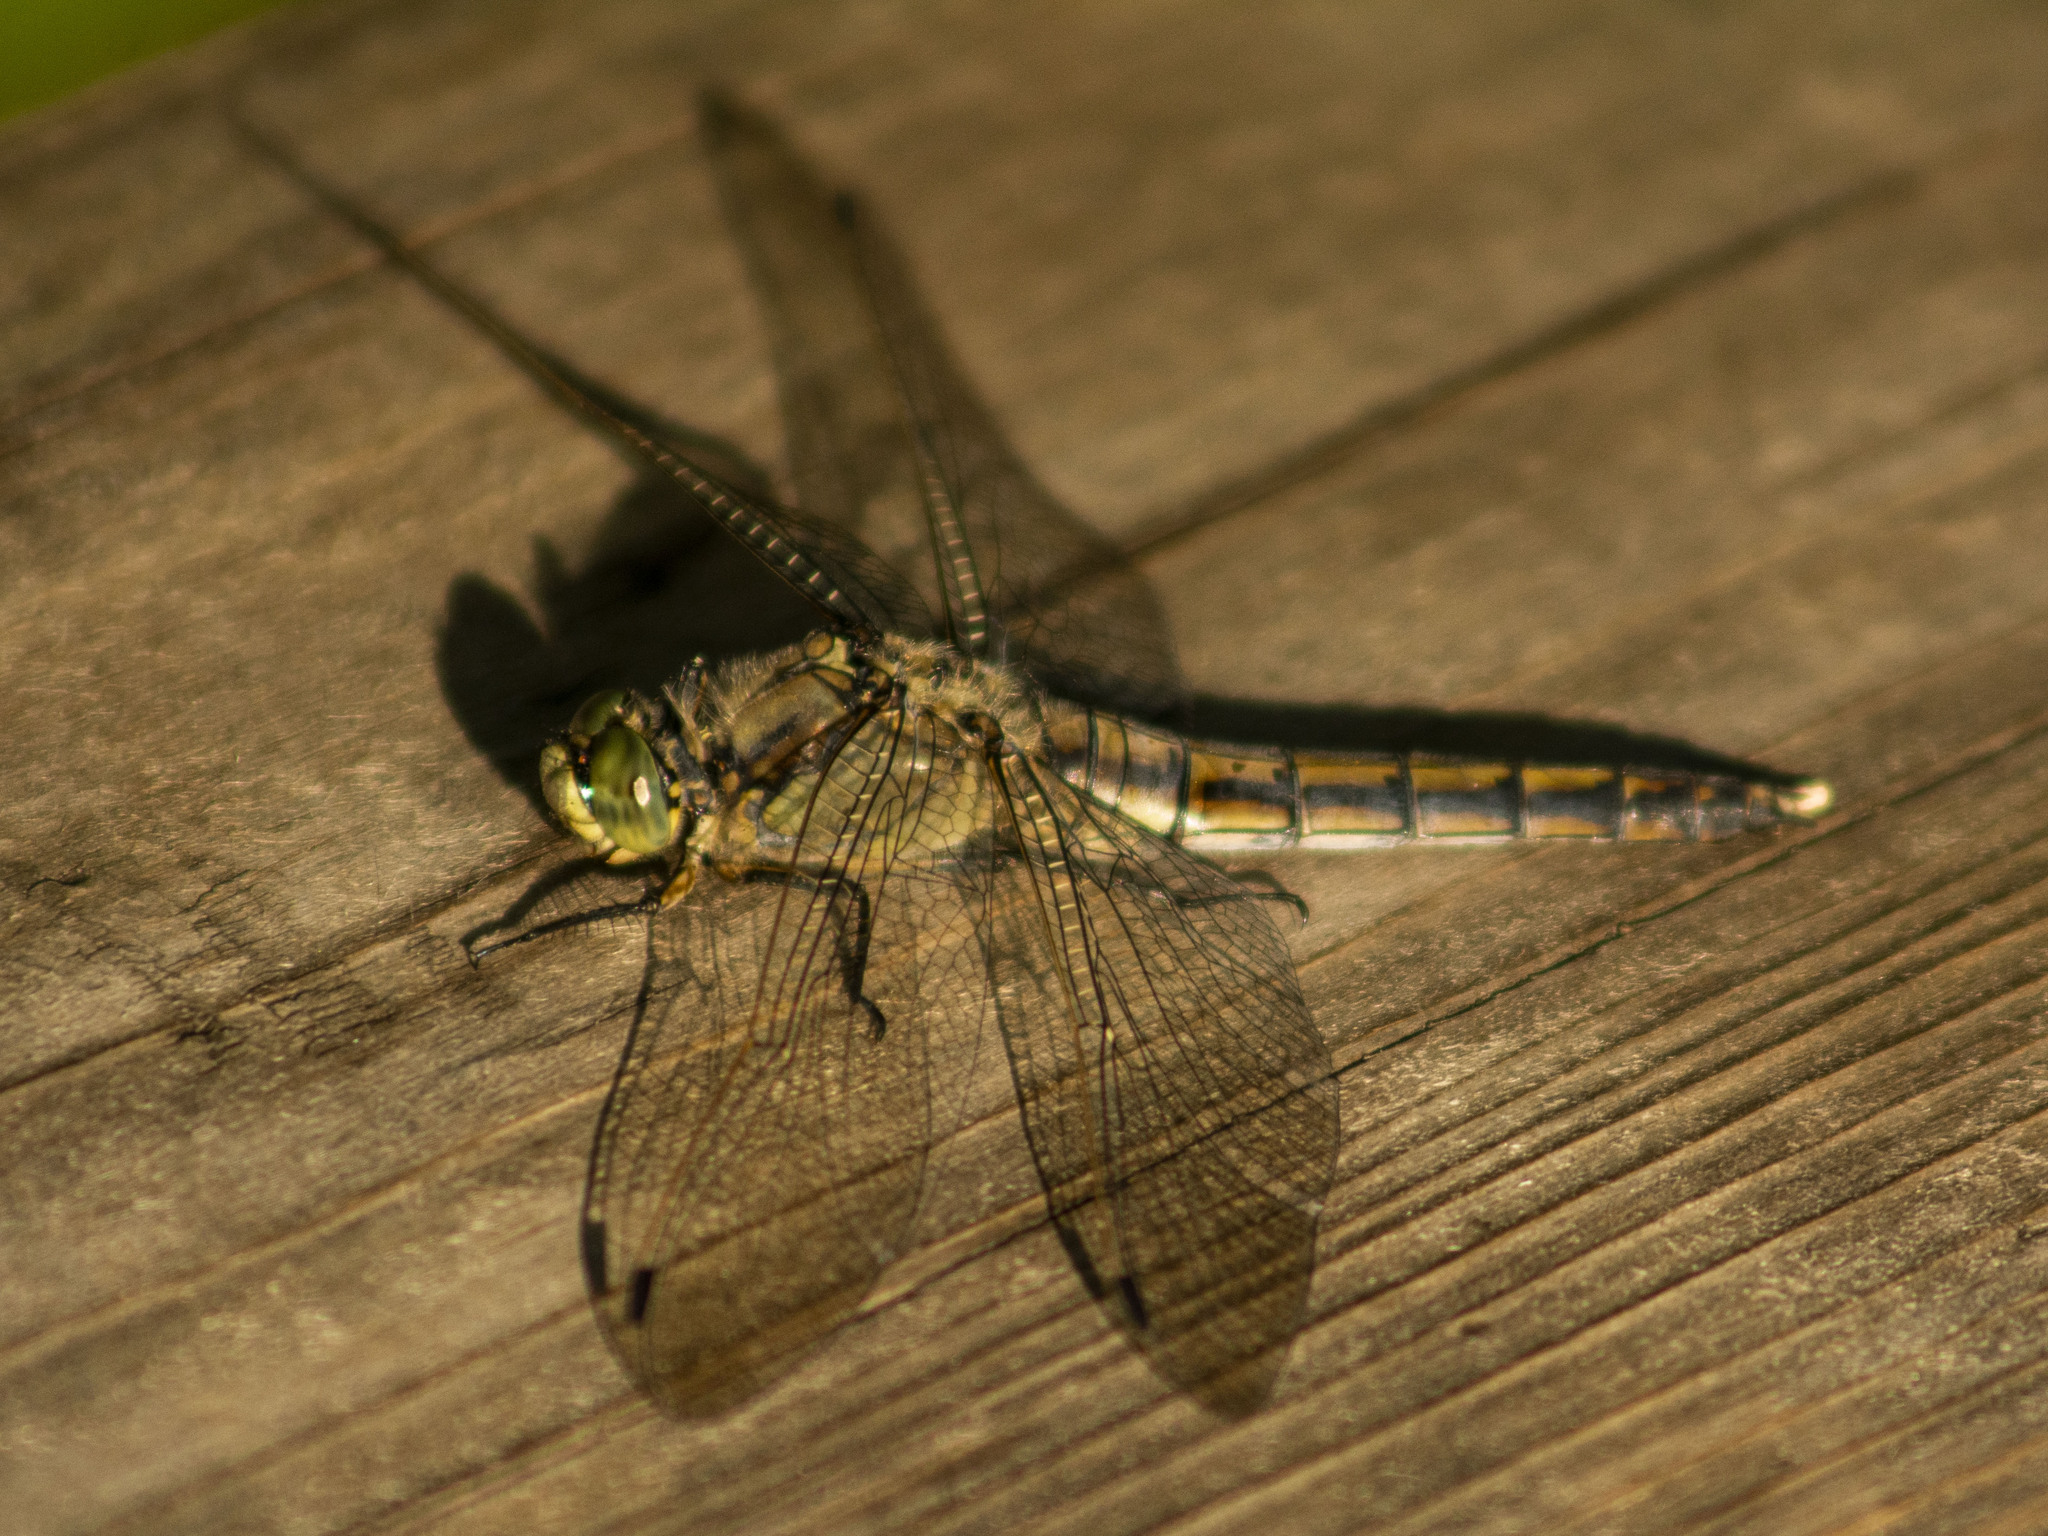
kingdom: Animalia
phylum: Arthropoda
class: Insecta
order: Odonata
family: Libellulidae
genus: Orthetrum
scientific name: Orthetrum cancellatum
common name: Black-tailed skimmer
